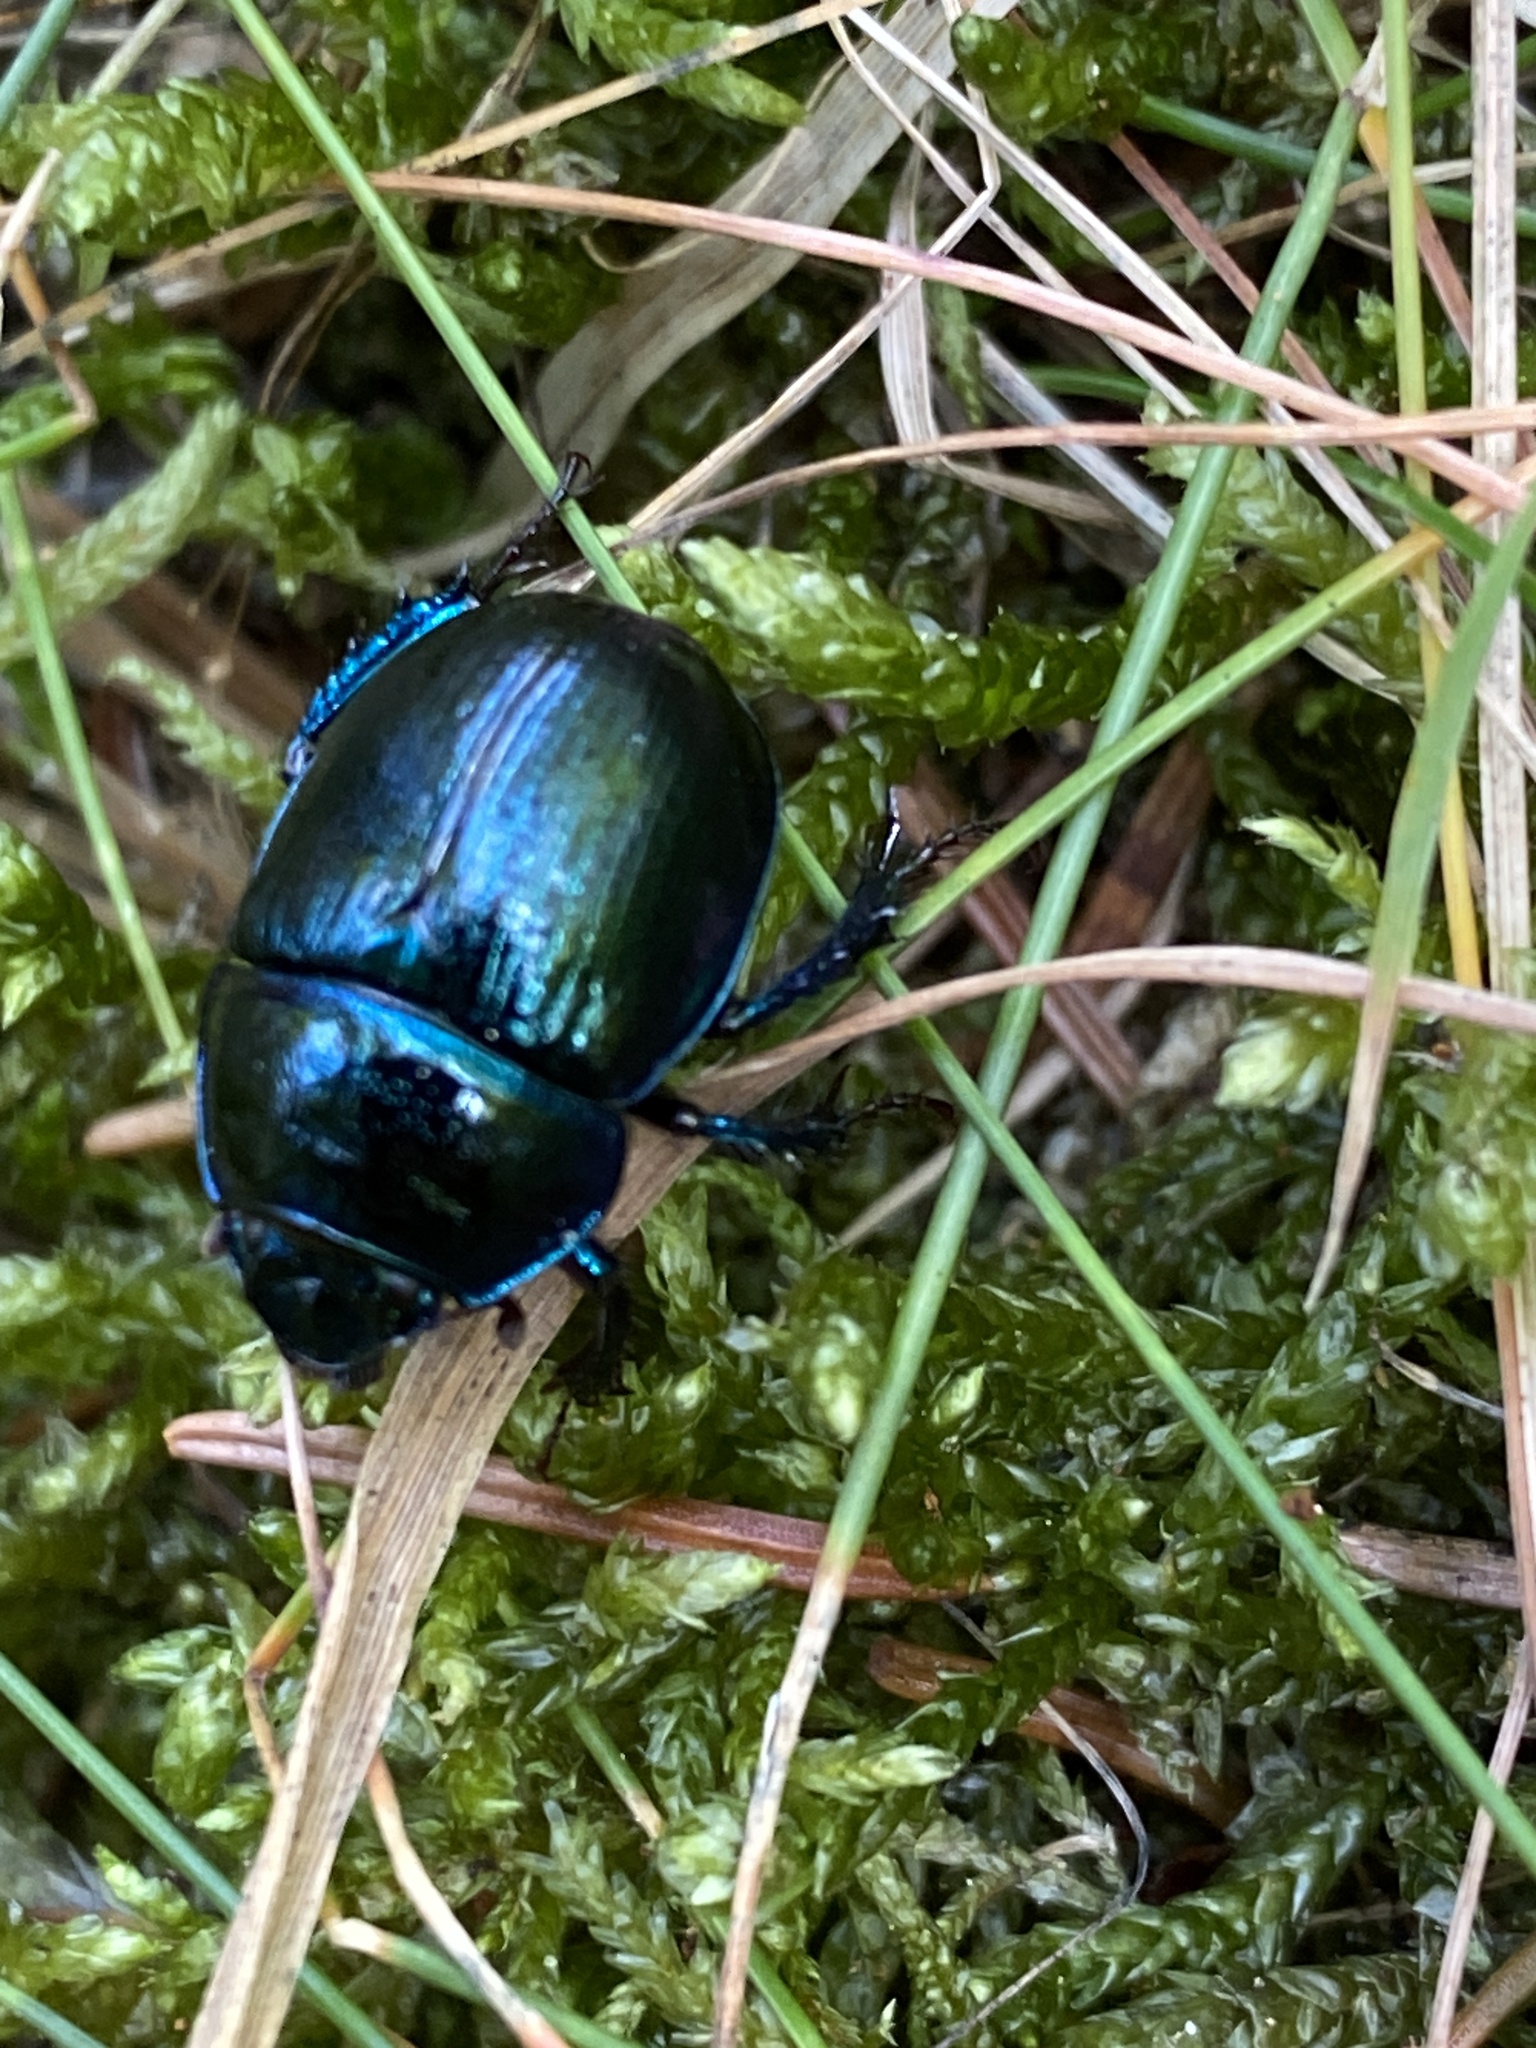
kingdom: Animalia
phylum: Arthropoda
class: Insecta
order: Coleoptera
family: Geotrupidae
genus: Anoplotrupes
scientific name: Anoplotrupes stercorosus
